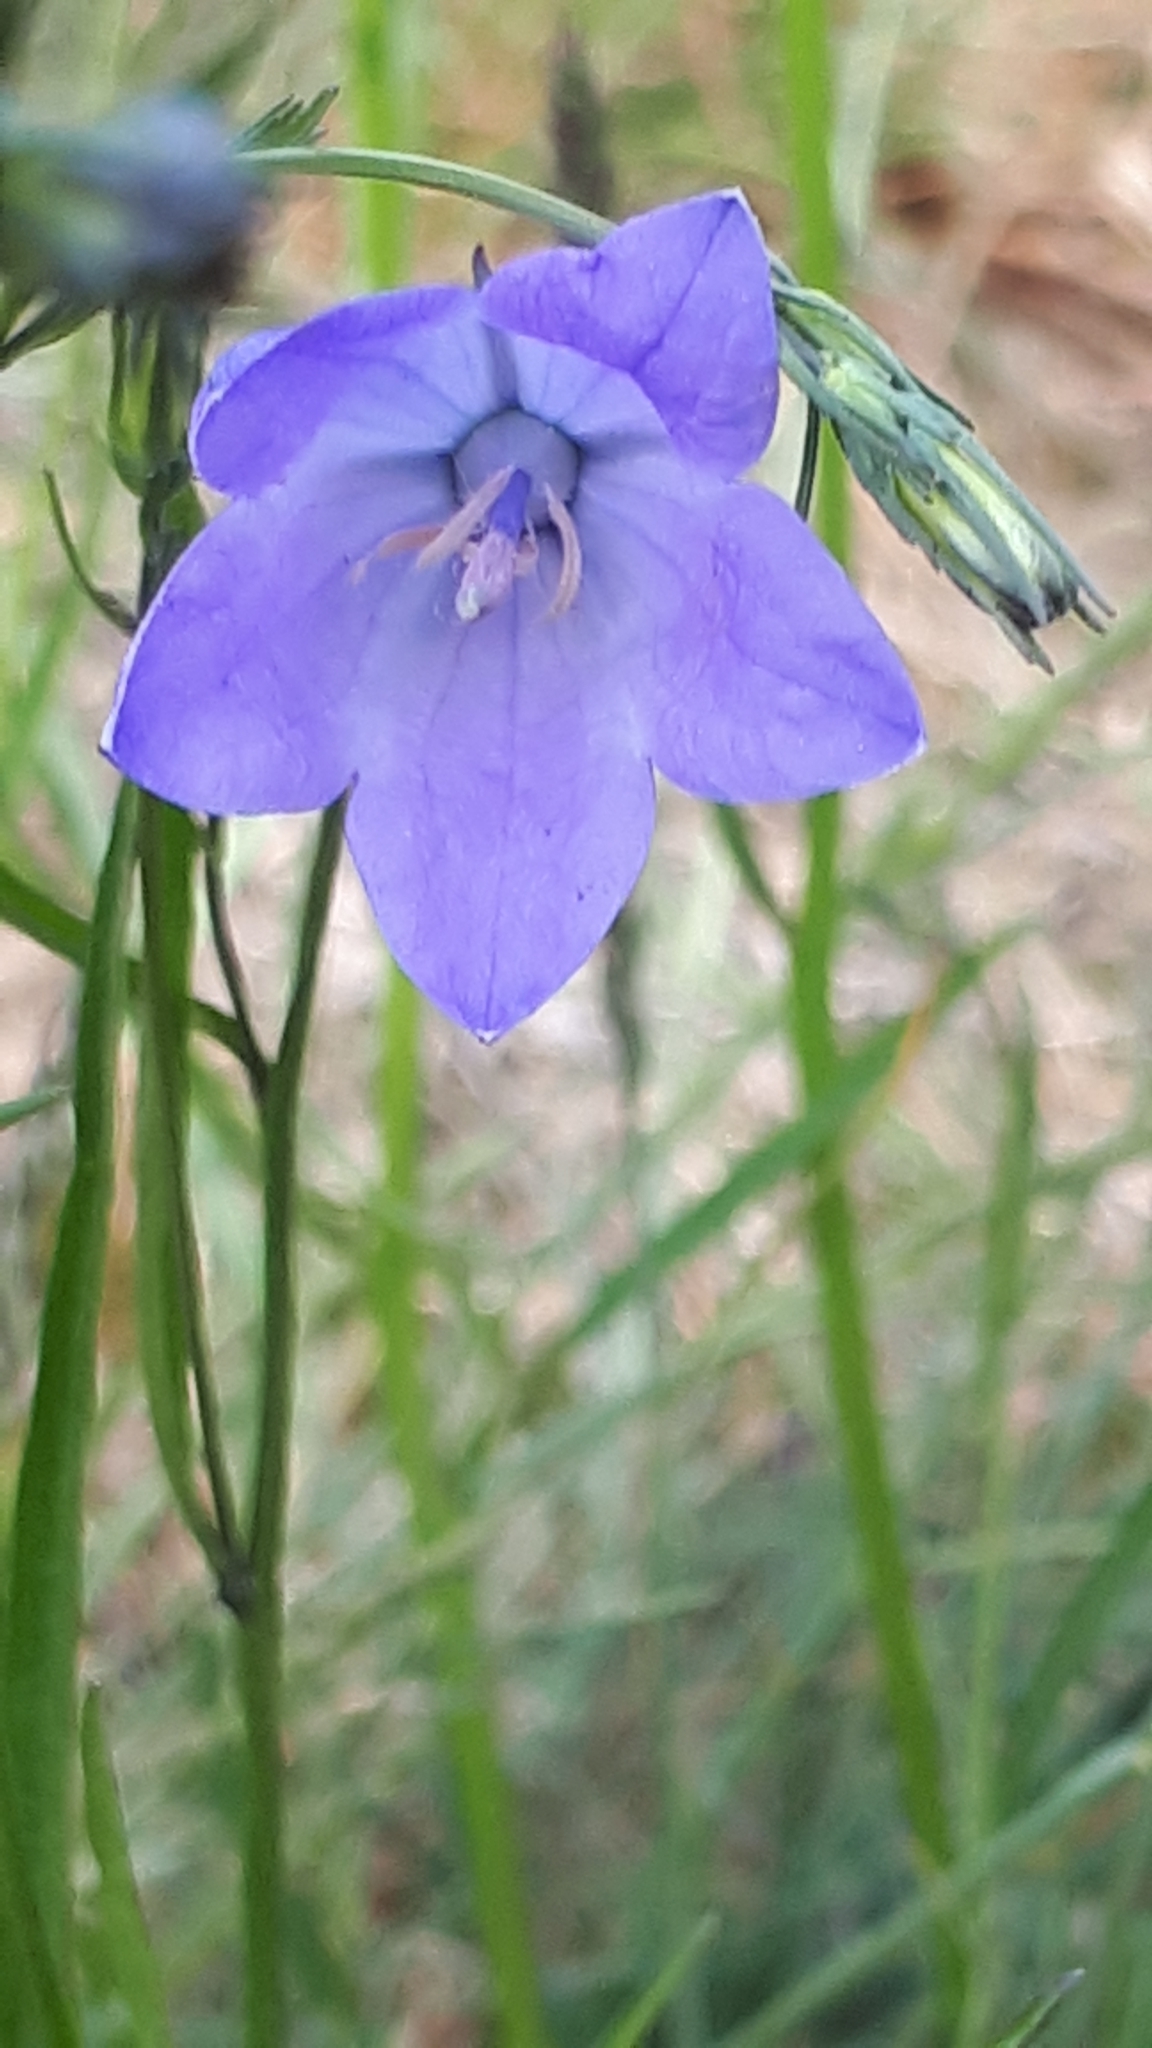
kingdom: Plantae
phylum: Tracheophyta
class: Magnoliopsida
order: Asterales
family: Campanulaceae
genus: Campanula
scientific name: Campanula rotundifolia
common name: Harebell
